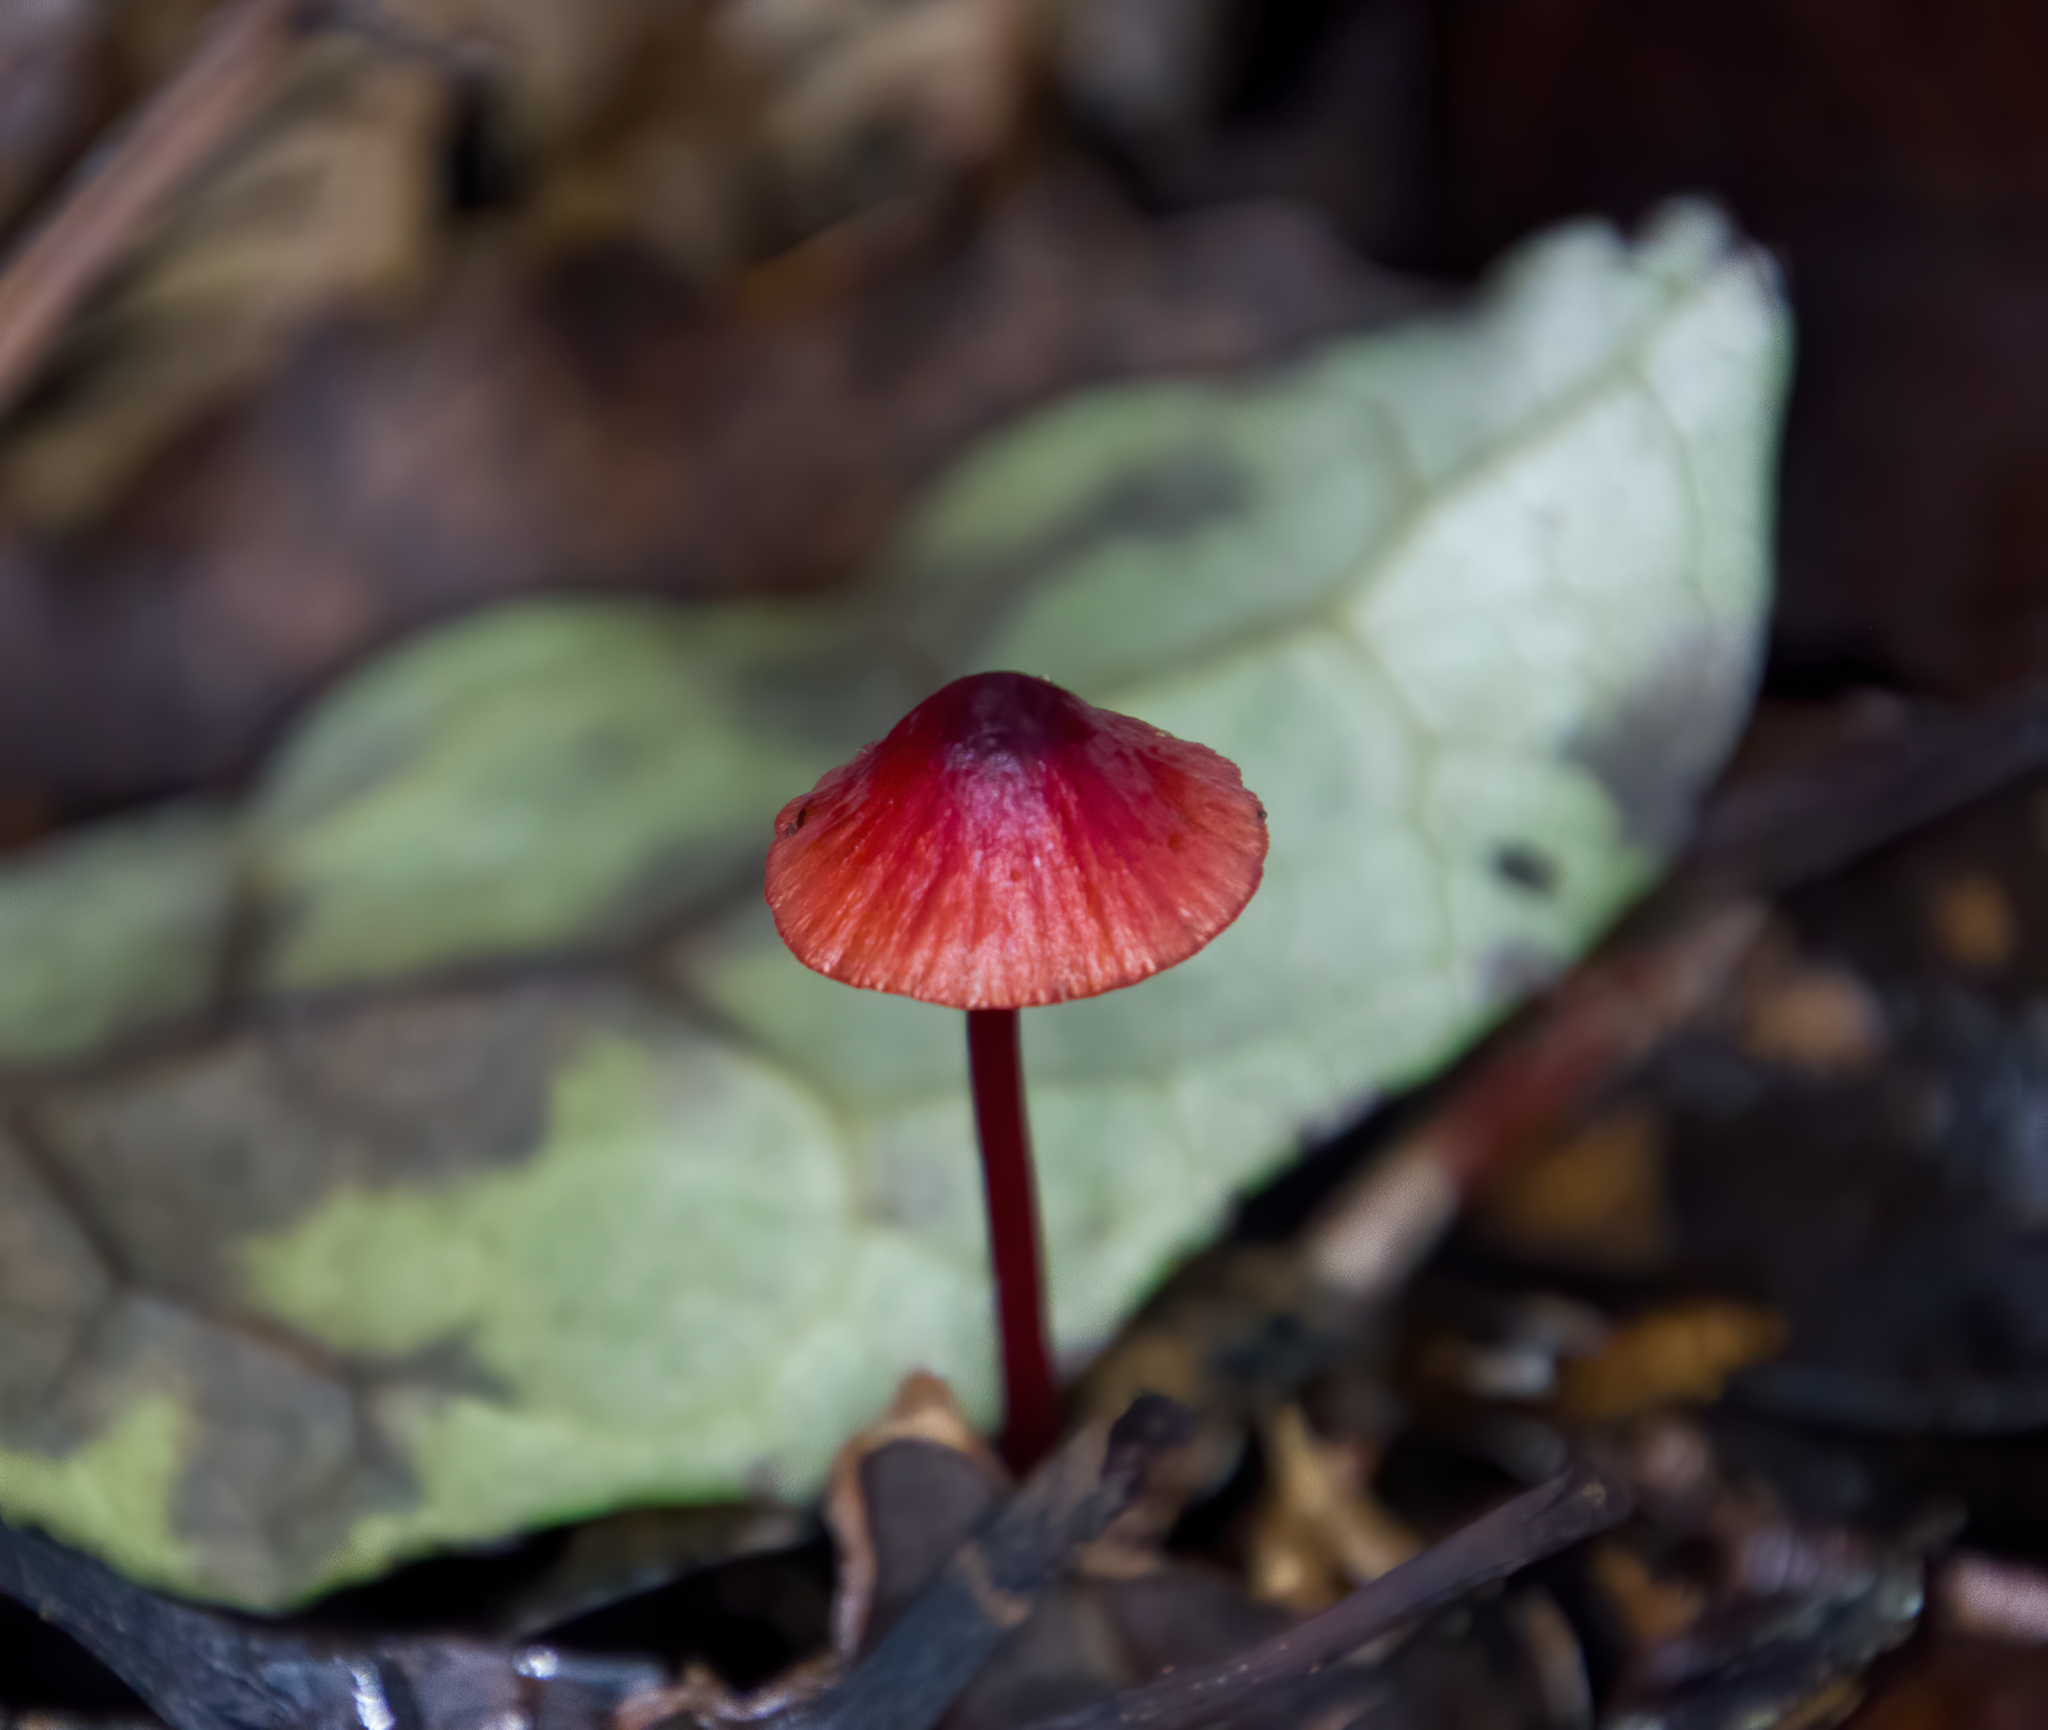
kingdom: Fungi
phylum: Basidiomycota
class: Agaricomycetes
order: Agaricales
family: Mycenaceae
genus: Mycena
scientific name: Mycena ura
